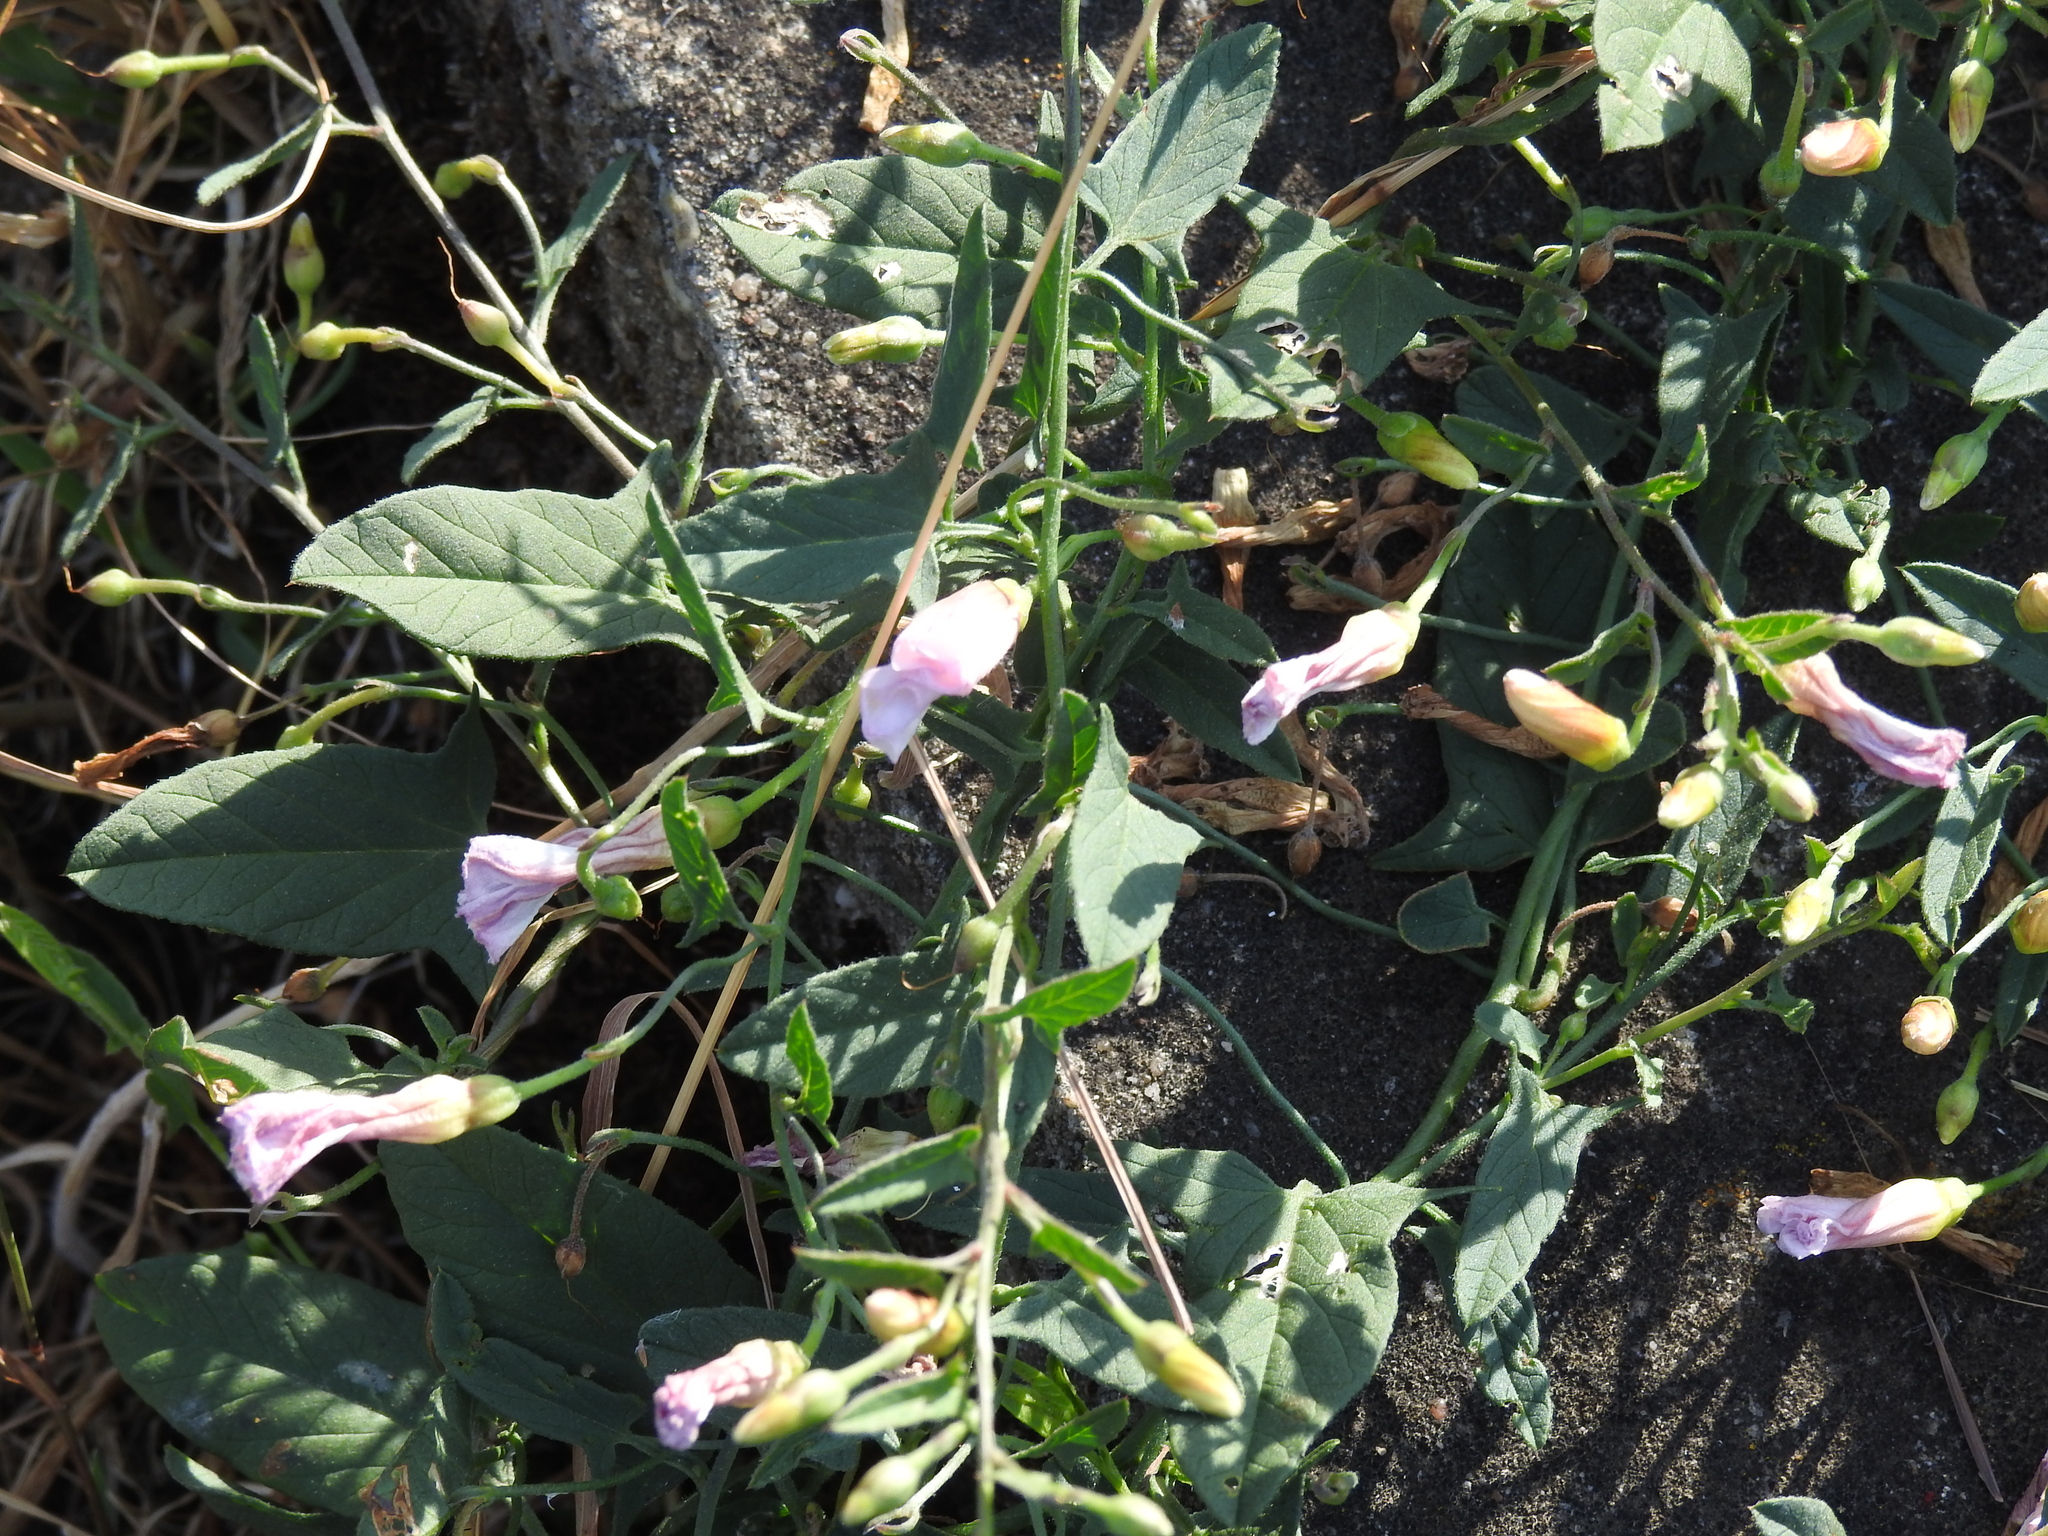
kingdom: Plantae
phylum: Tracheophyta
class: Magnoliopsida
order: Solanales
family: Convolvulaceae
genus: Convolvulus
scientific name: Convolvulus arvensis
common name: Field bindweed
